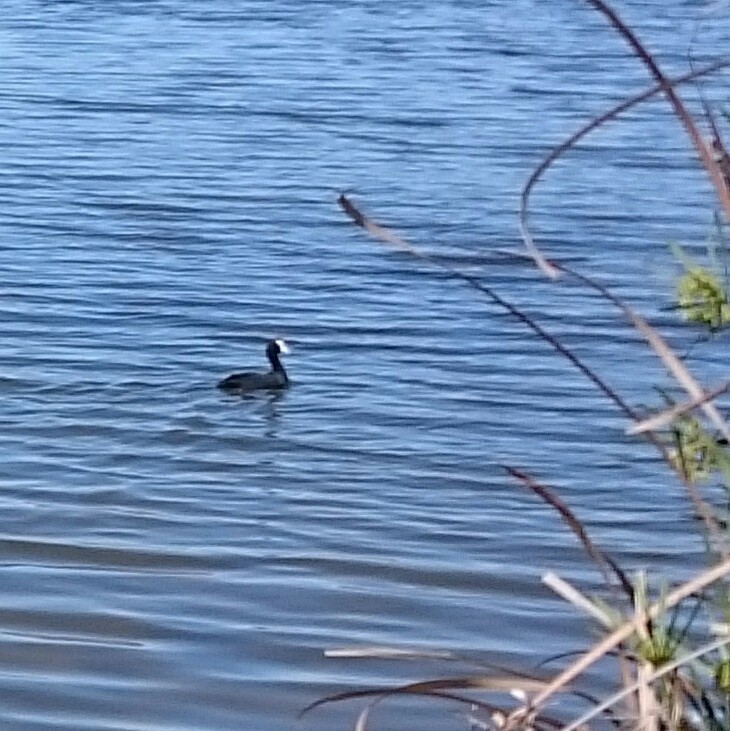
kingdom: Animalia
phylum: Chordata
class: Aves
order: Gruiformes
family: Rallidae
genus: Fulica
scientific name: Fulica cristata
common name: Red-knobbed coot
